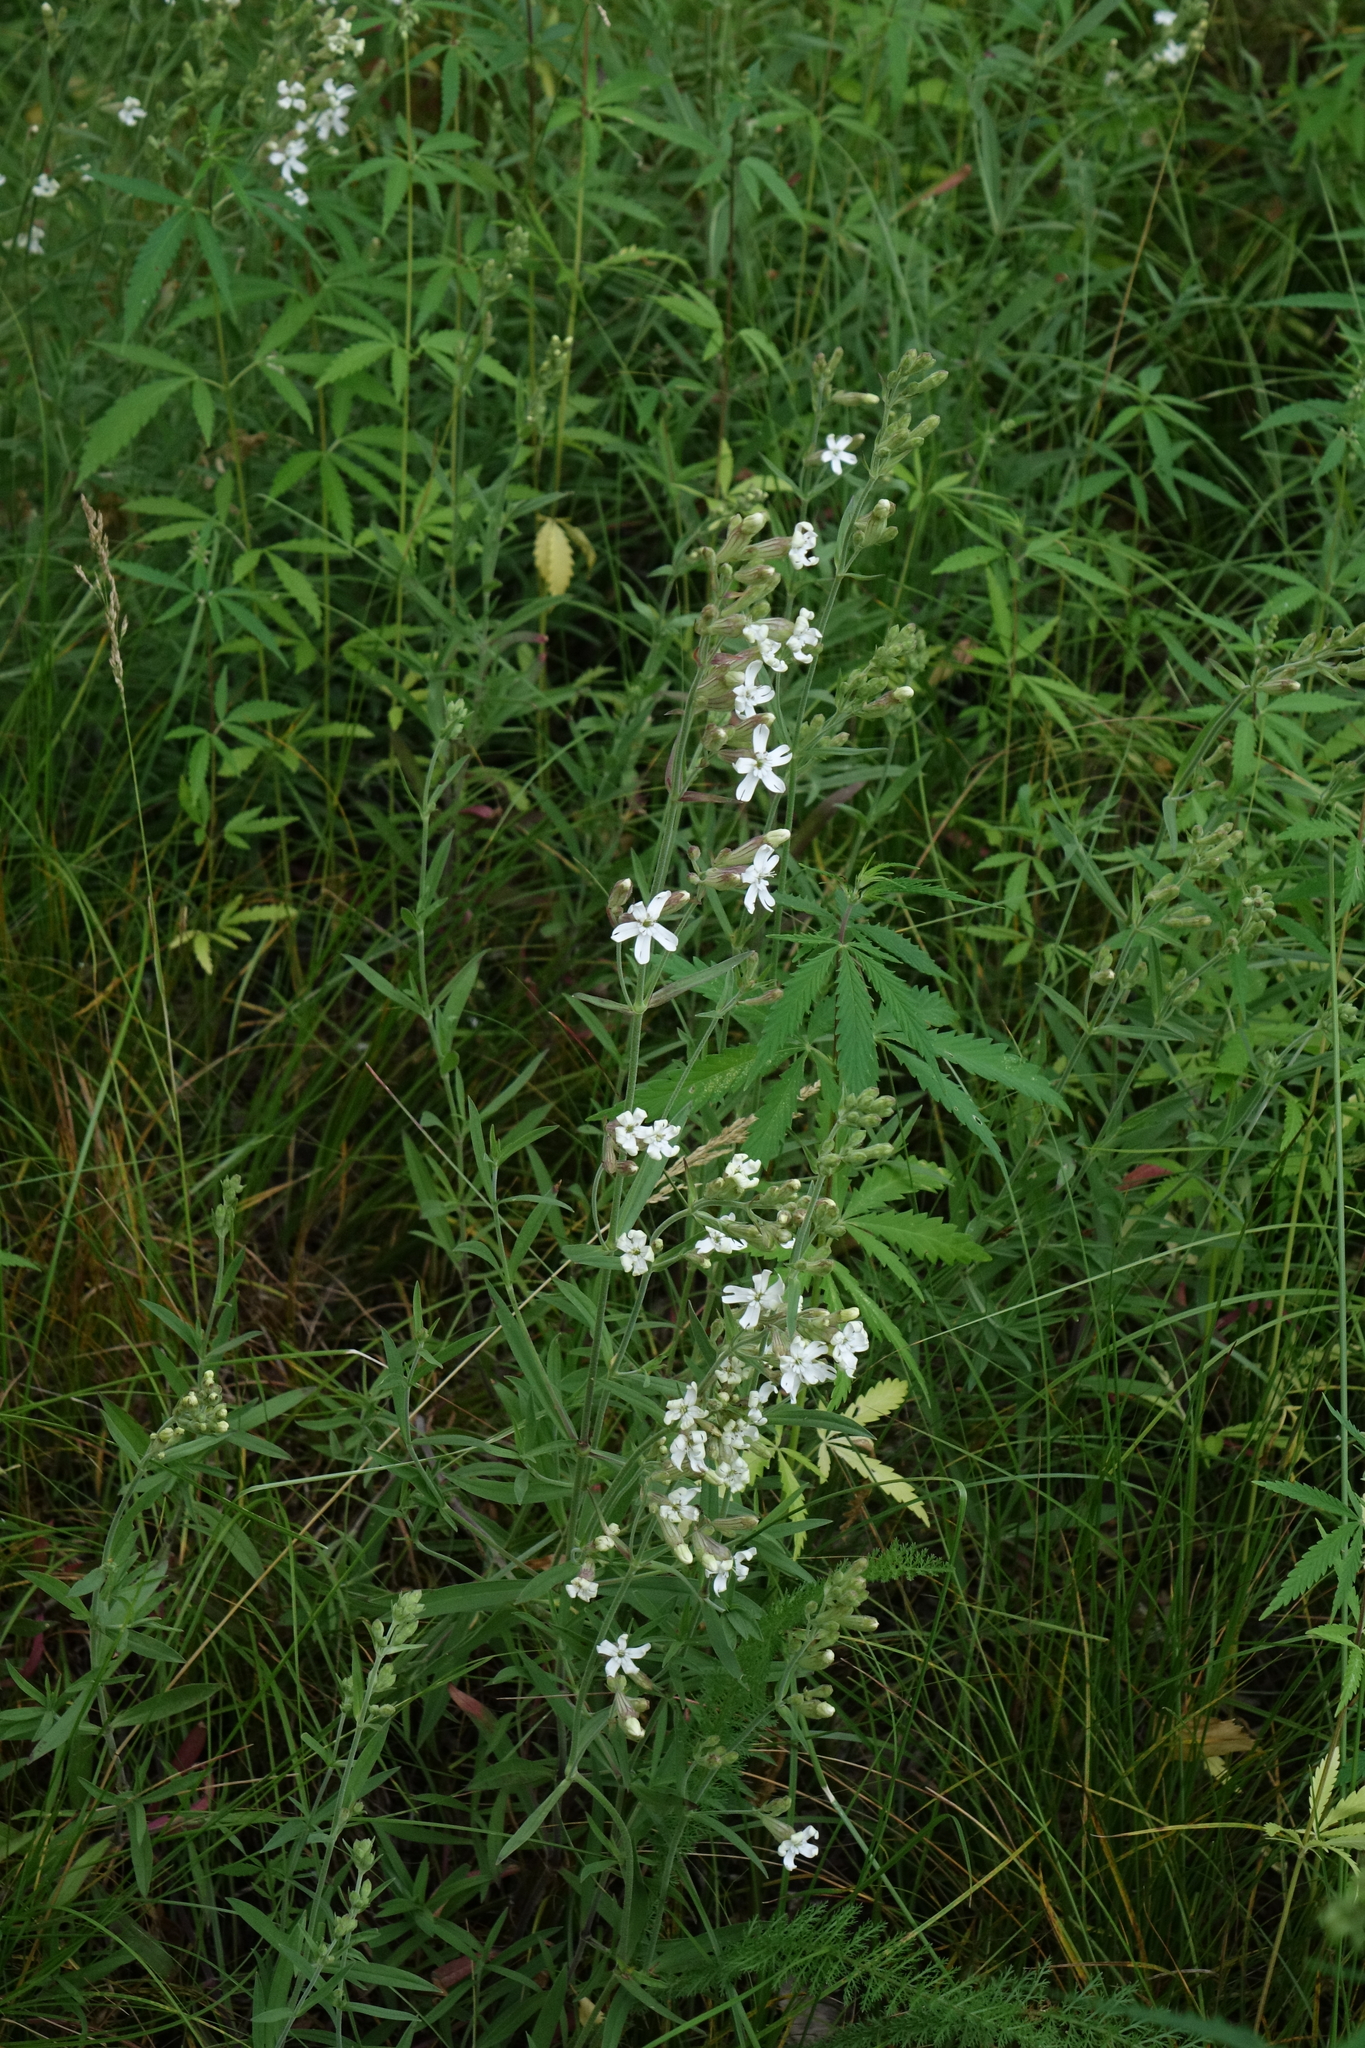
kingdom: Plantae
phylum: Tracheophyta
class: Magnoliopsida
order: Caryophyllales
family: Caryophyllaceae
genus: Silene
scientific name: Silene amoena
